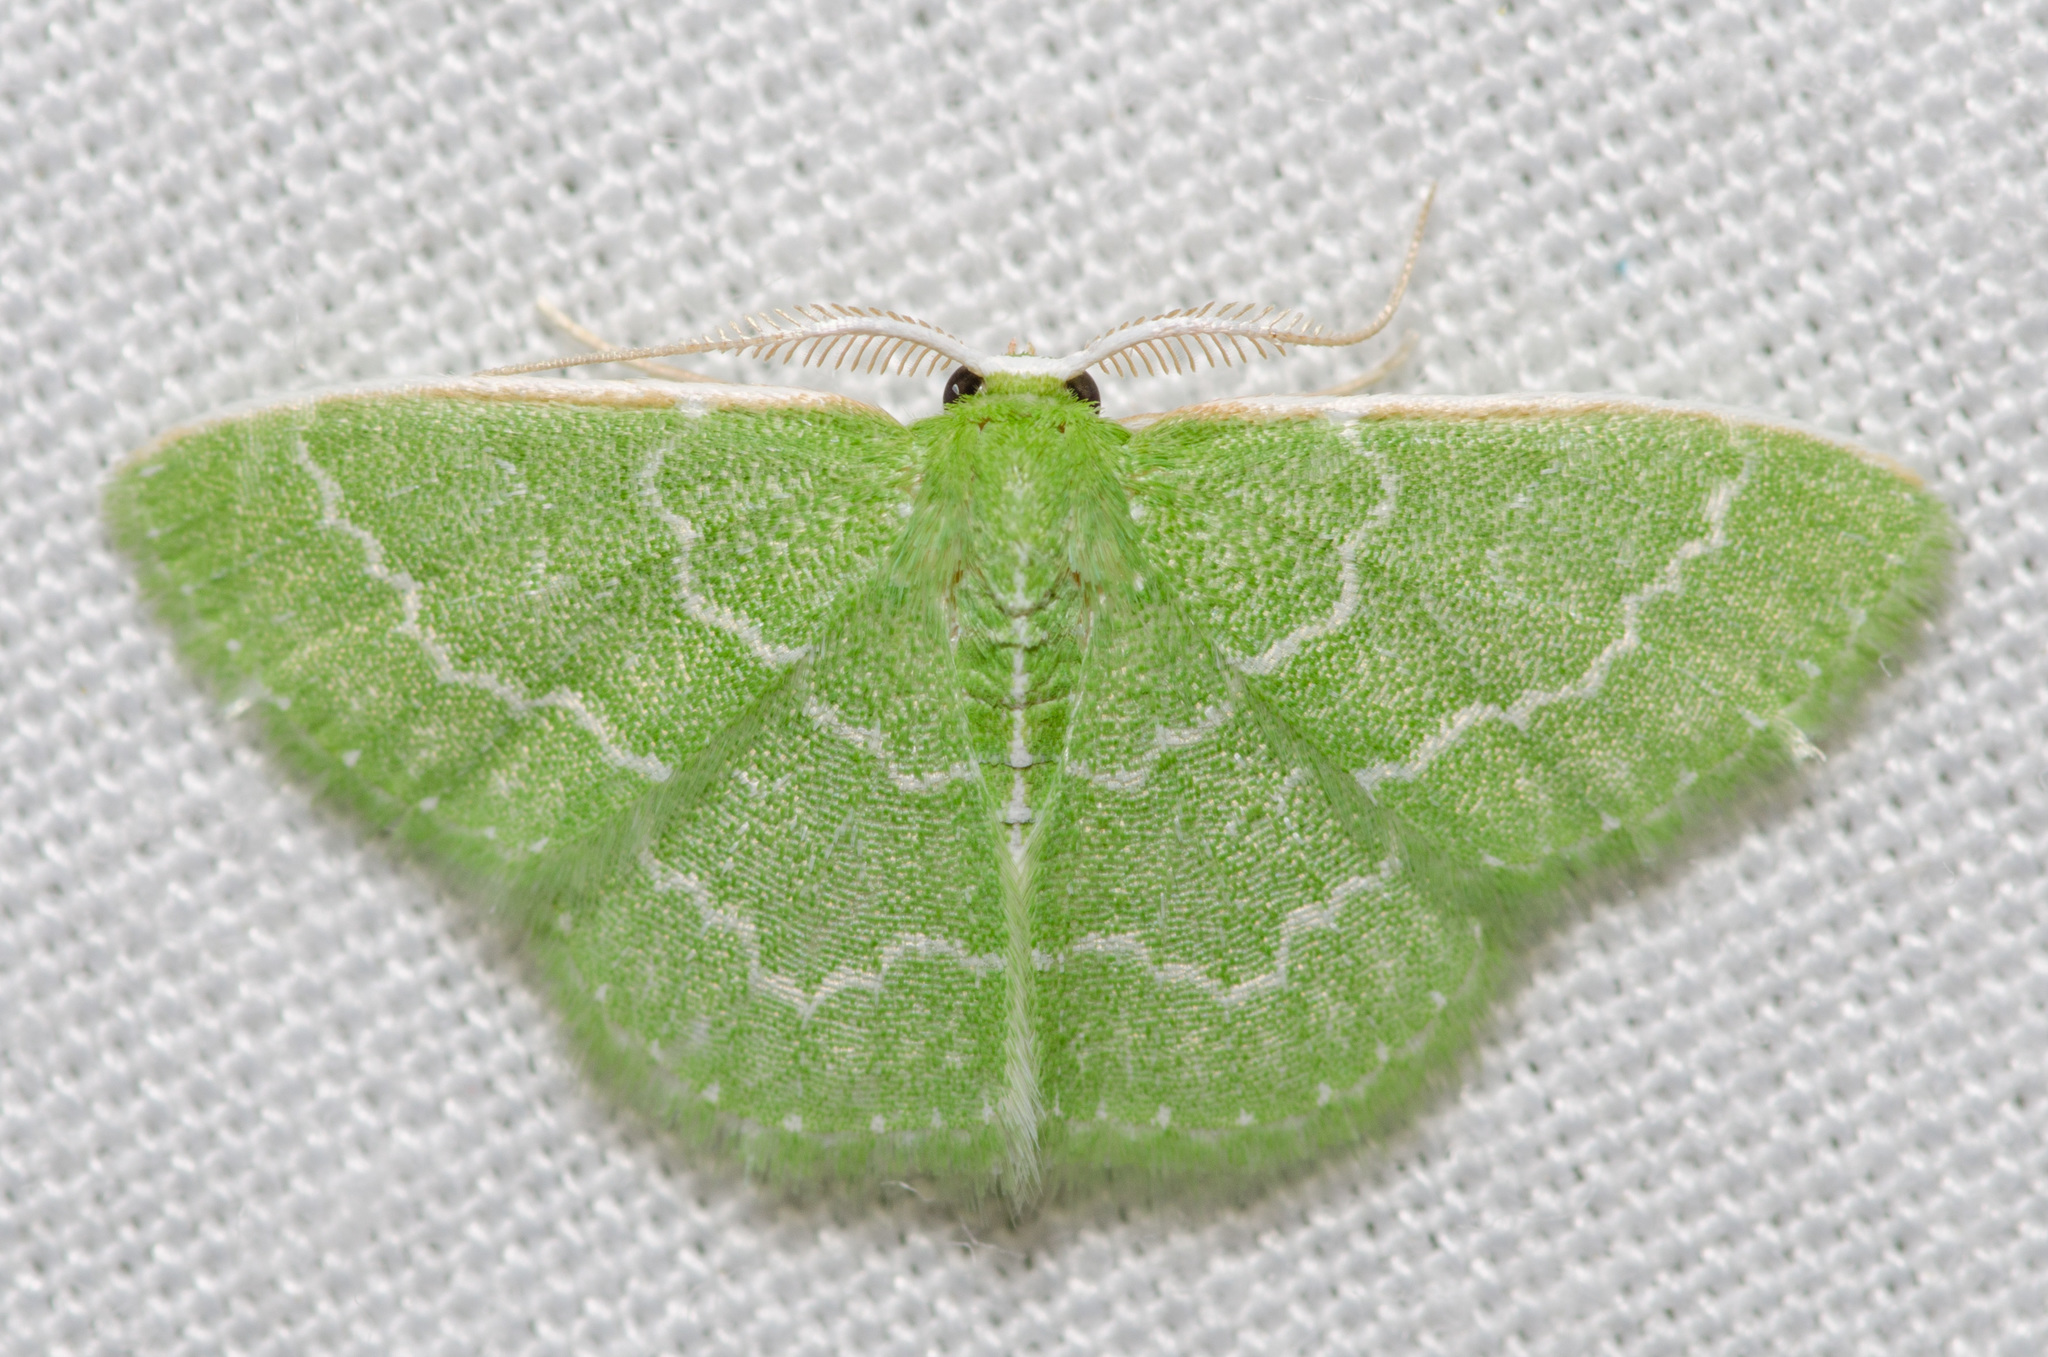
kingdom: Animalia
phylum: Arthropoda
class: Insecta
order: Lepidoptera
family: Geometridae
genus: Synchlora
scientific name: Synchlora frondaria
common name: Southern emerald
